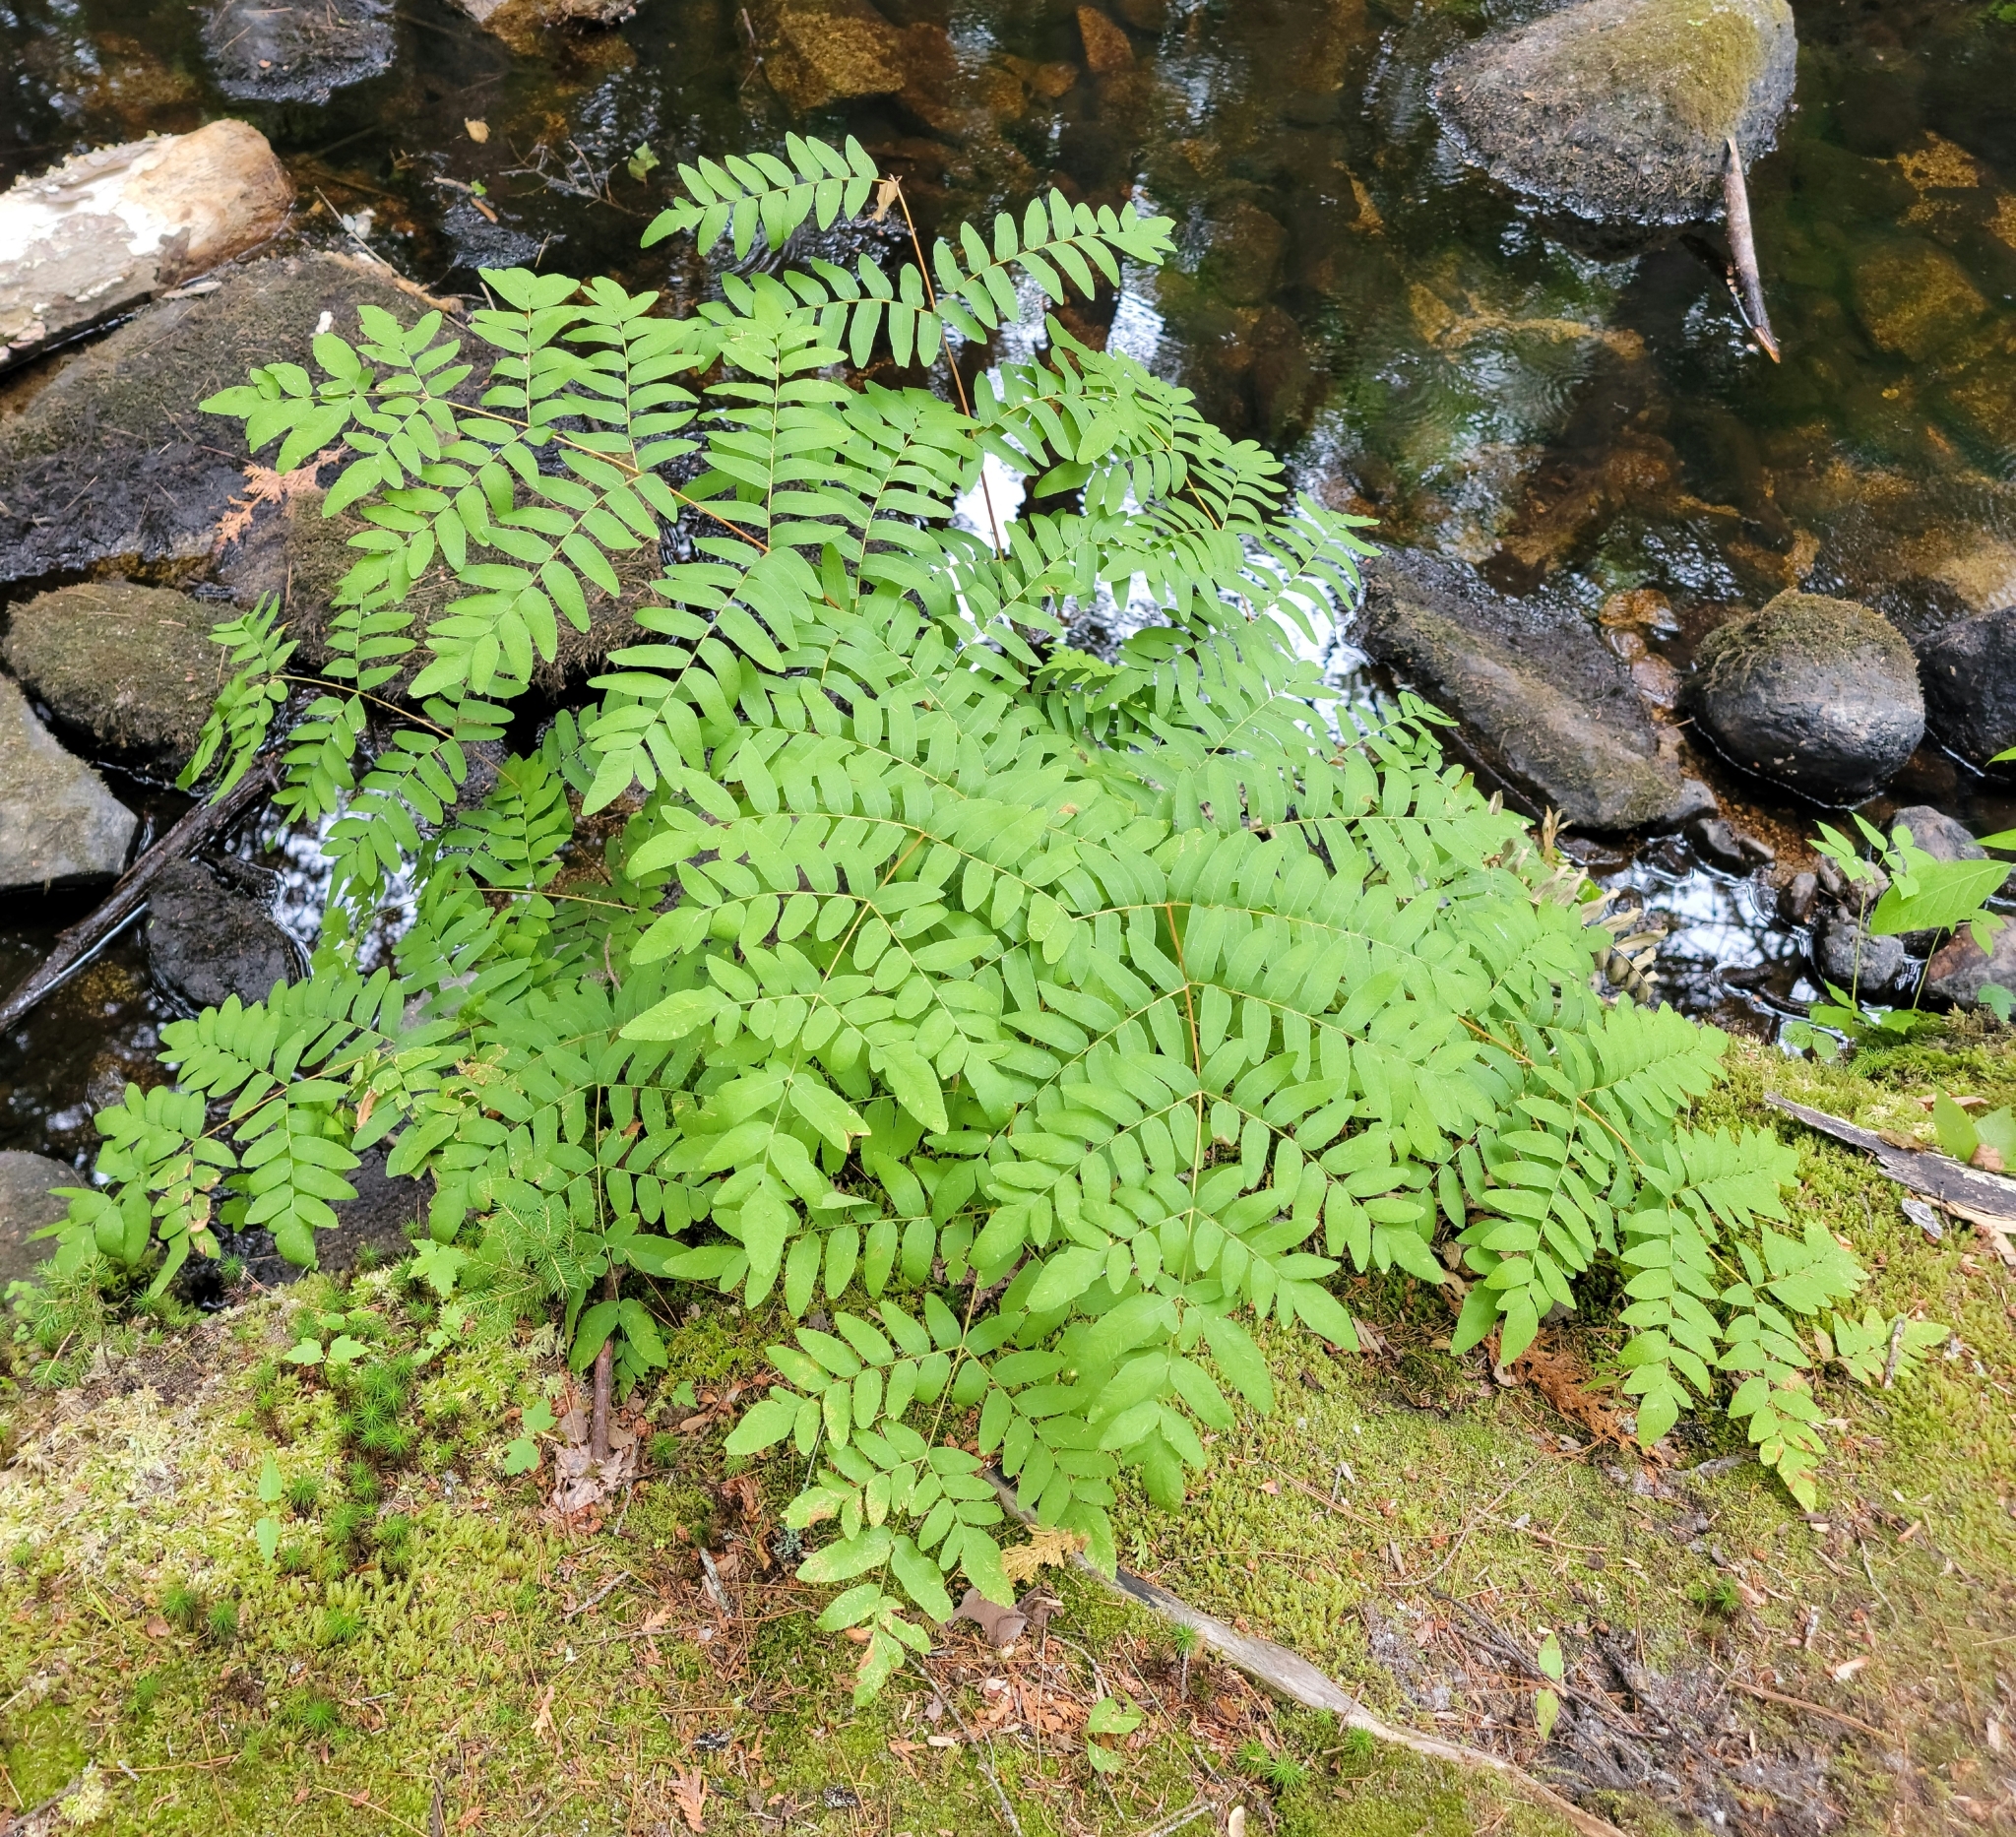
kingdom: Plantae
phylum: Tracheophyta
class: Polypodiopsida
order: Osmundales
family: Osmundaceae
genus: Osmunda
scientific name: Osmunda spectabilis
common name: American royal fern
